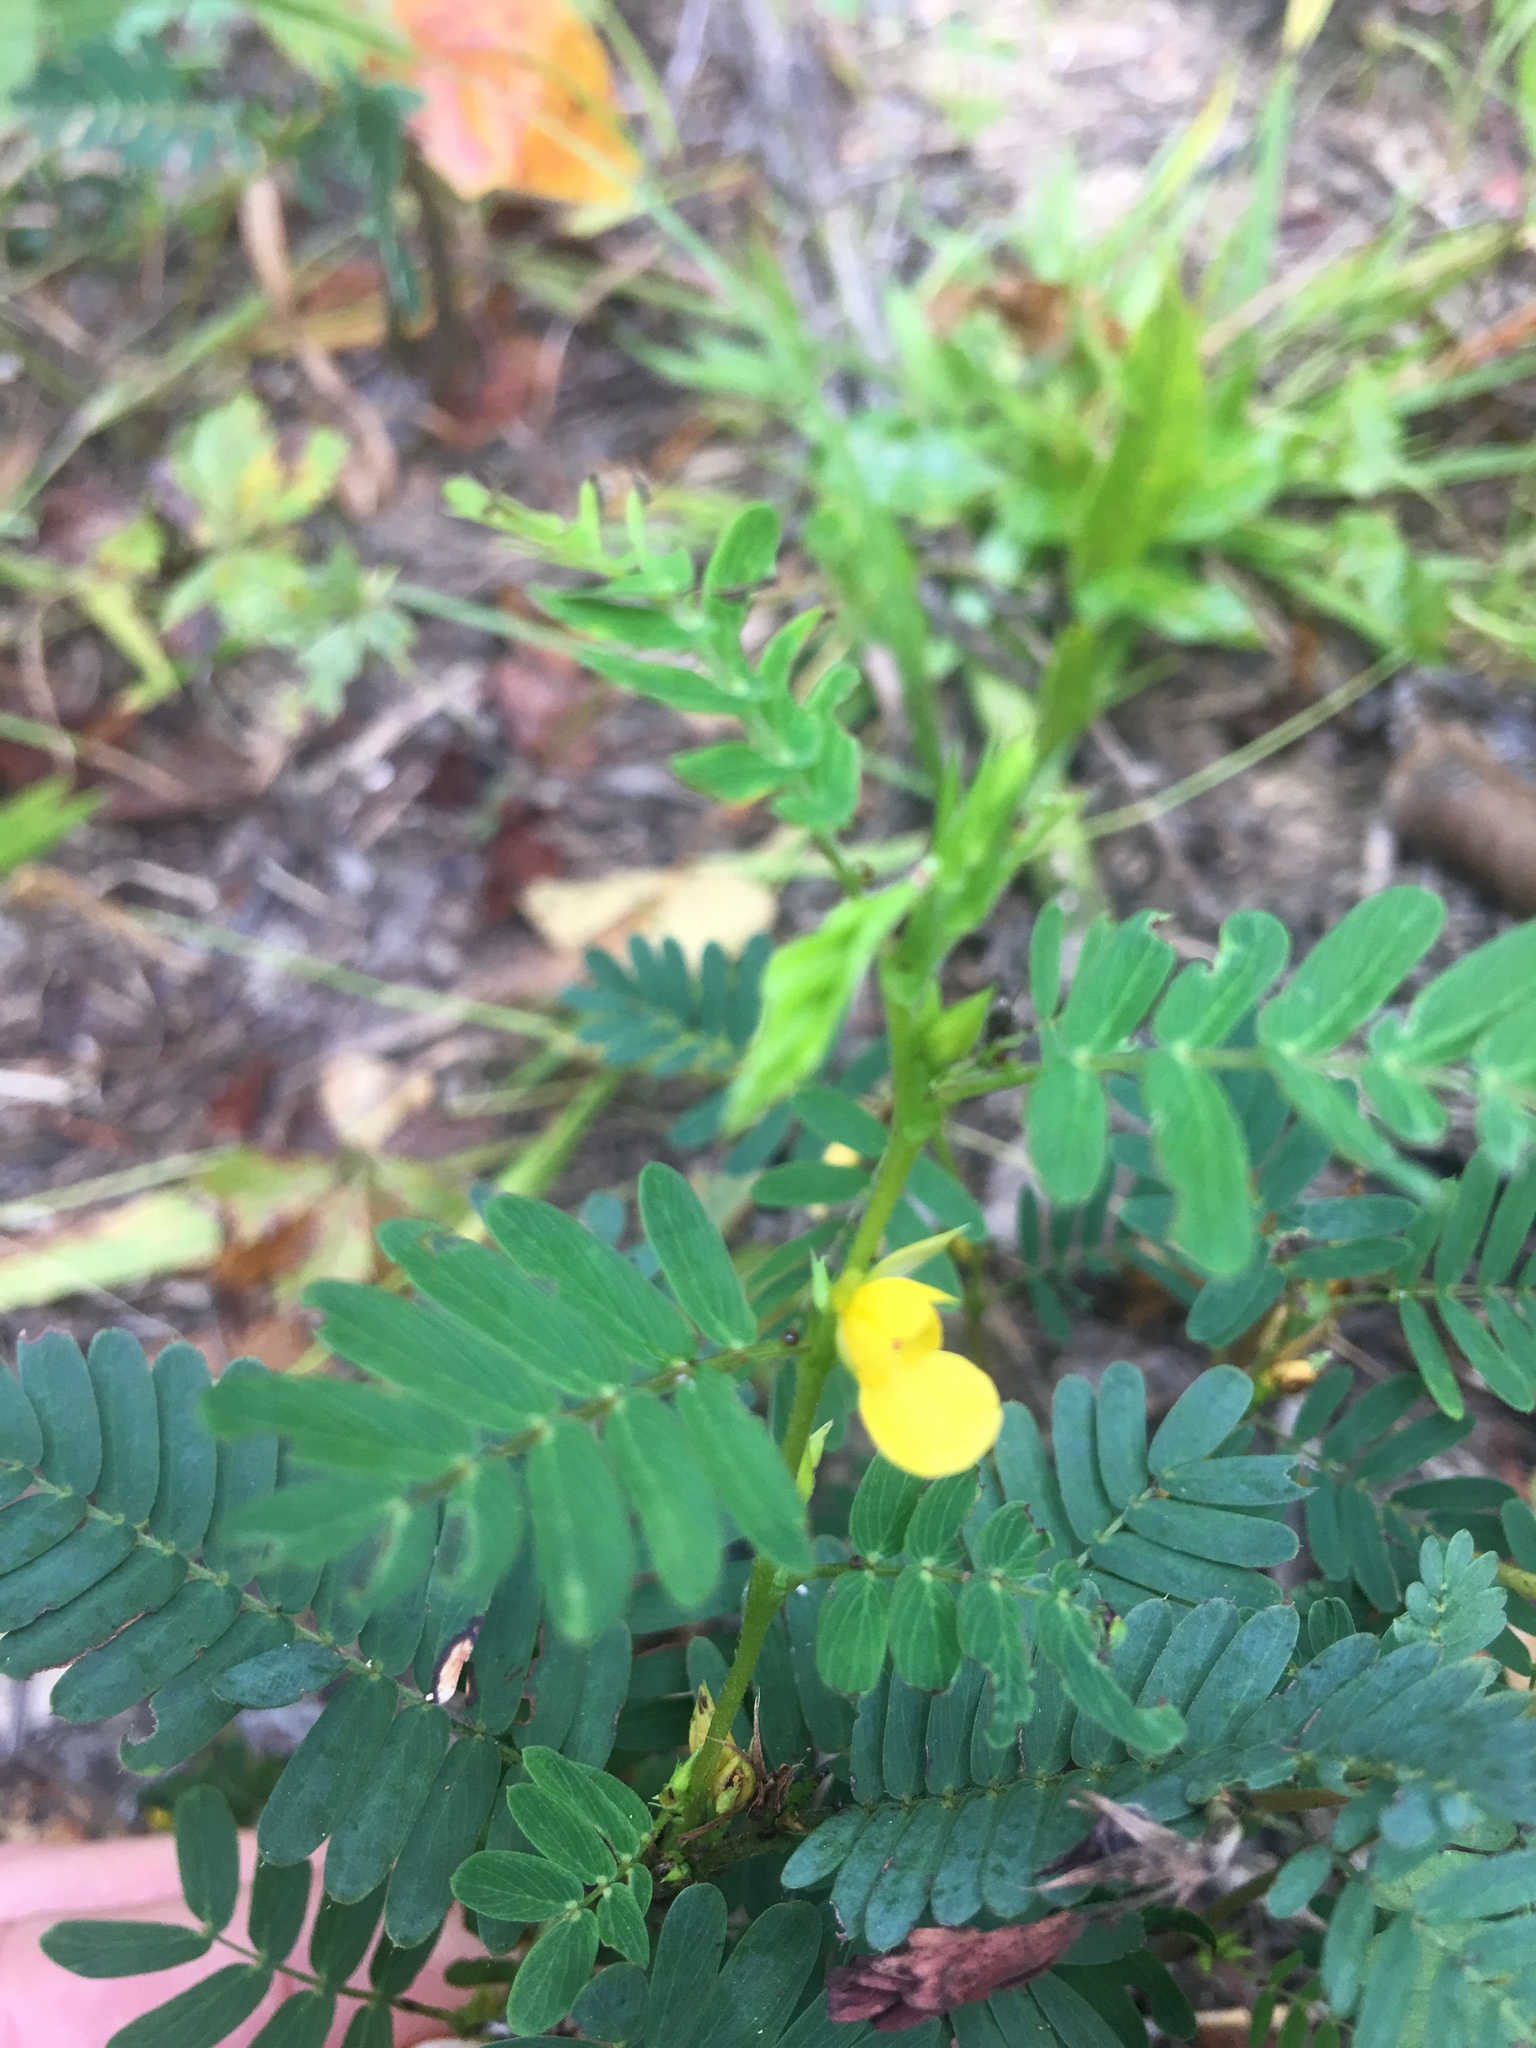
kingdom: Plantae
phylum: Tracheophyta
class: Magnoliopsida
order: Fabales
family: Fabaceae
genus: Chamaecrista
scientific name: Chamaecrista nictitans
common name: Sensitive cassia
